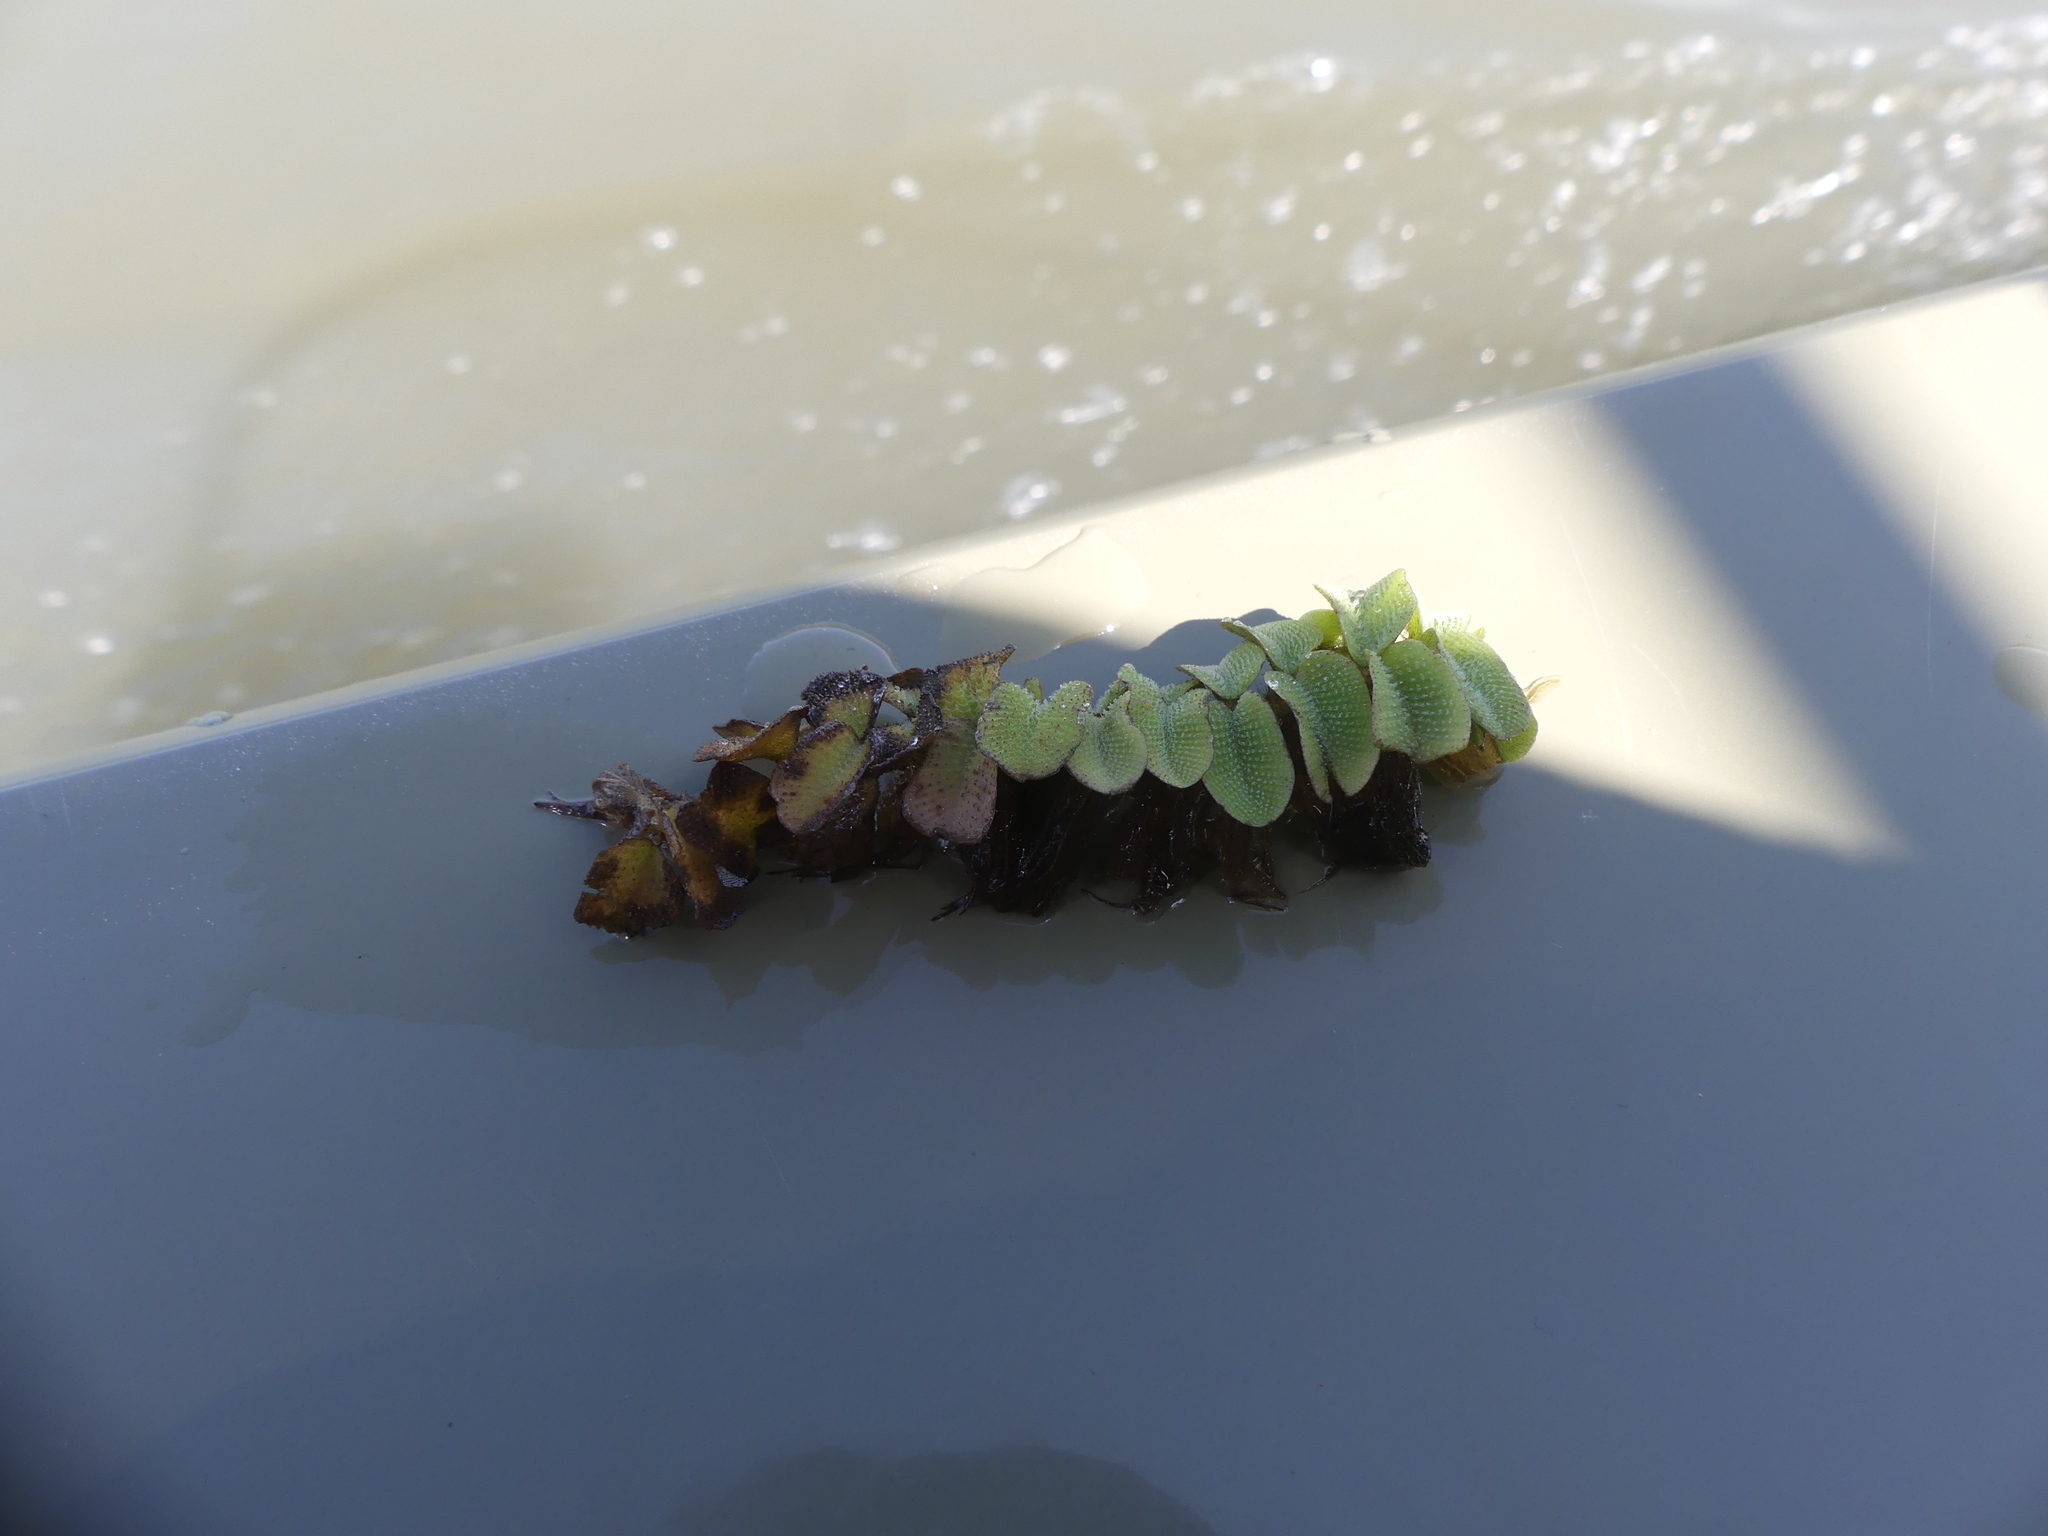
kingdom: Plantae
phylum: Tracheophyta
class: Polypodiopsida
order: Salviniales
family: Salviniaceae
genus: Salvinia
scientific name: Salvinia natans
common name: Floating fern
